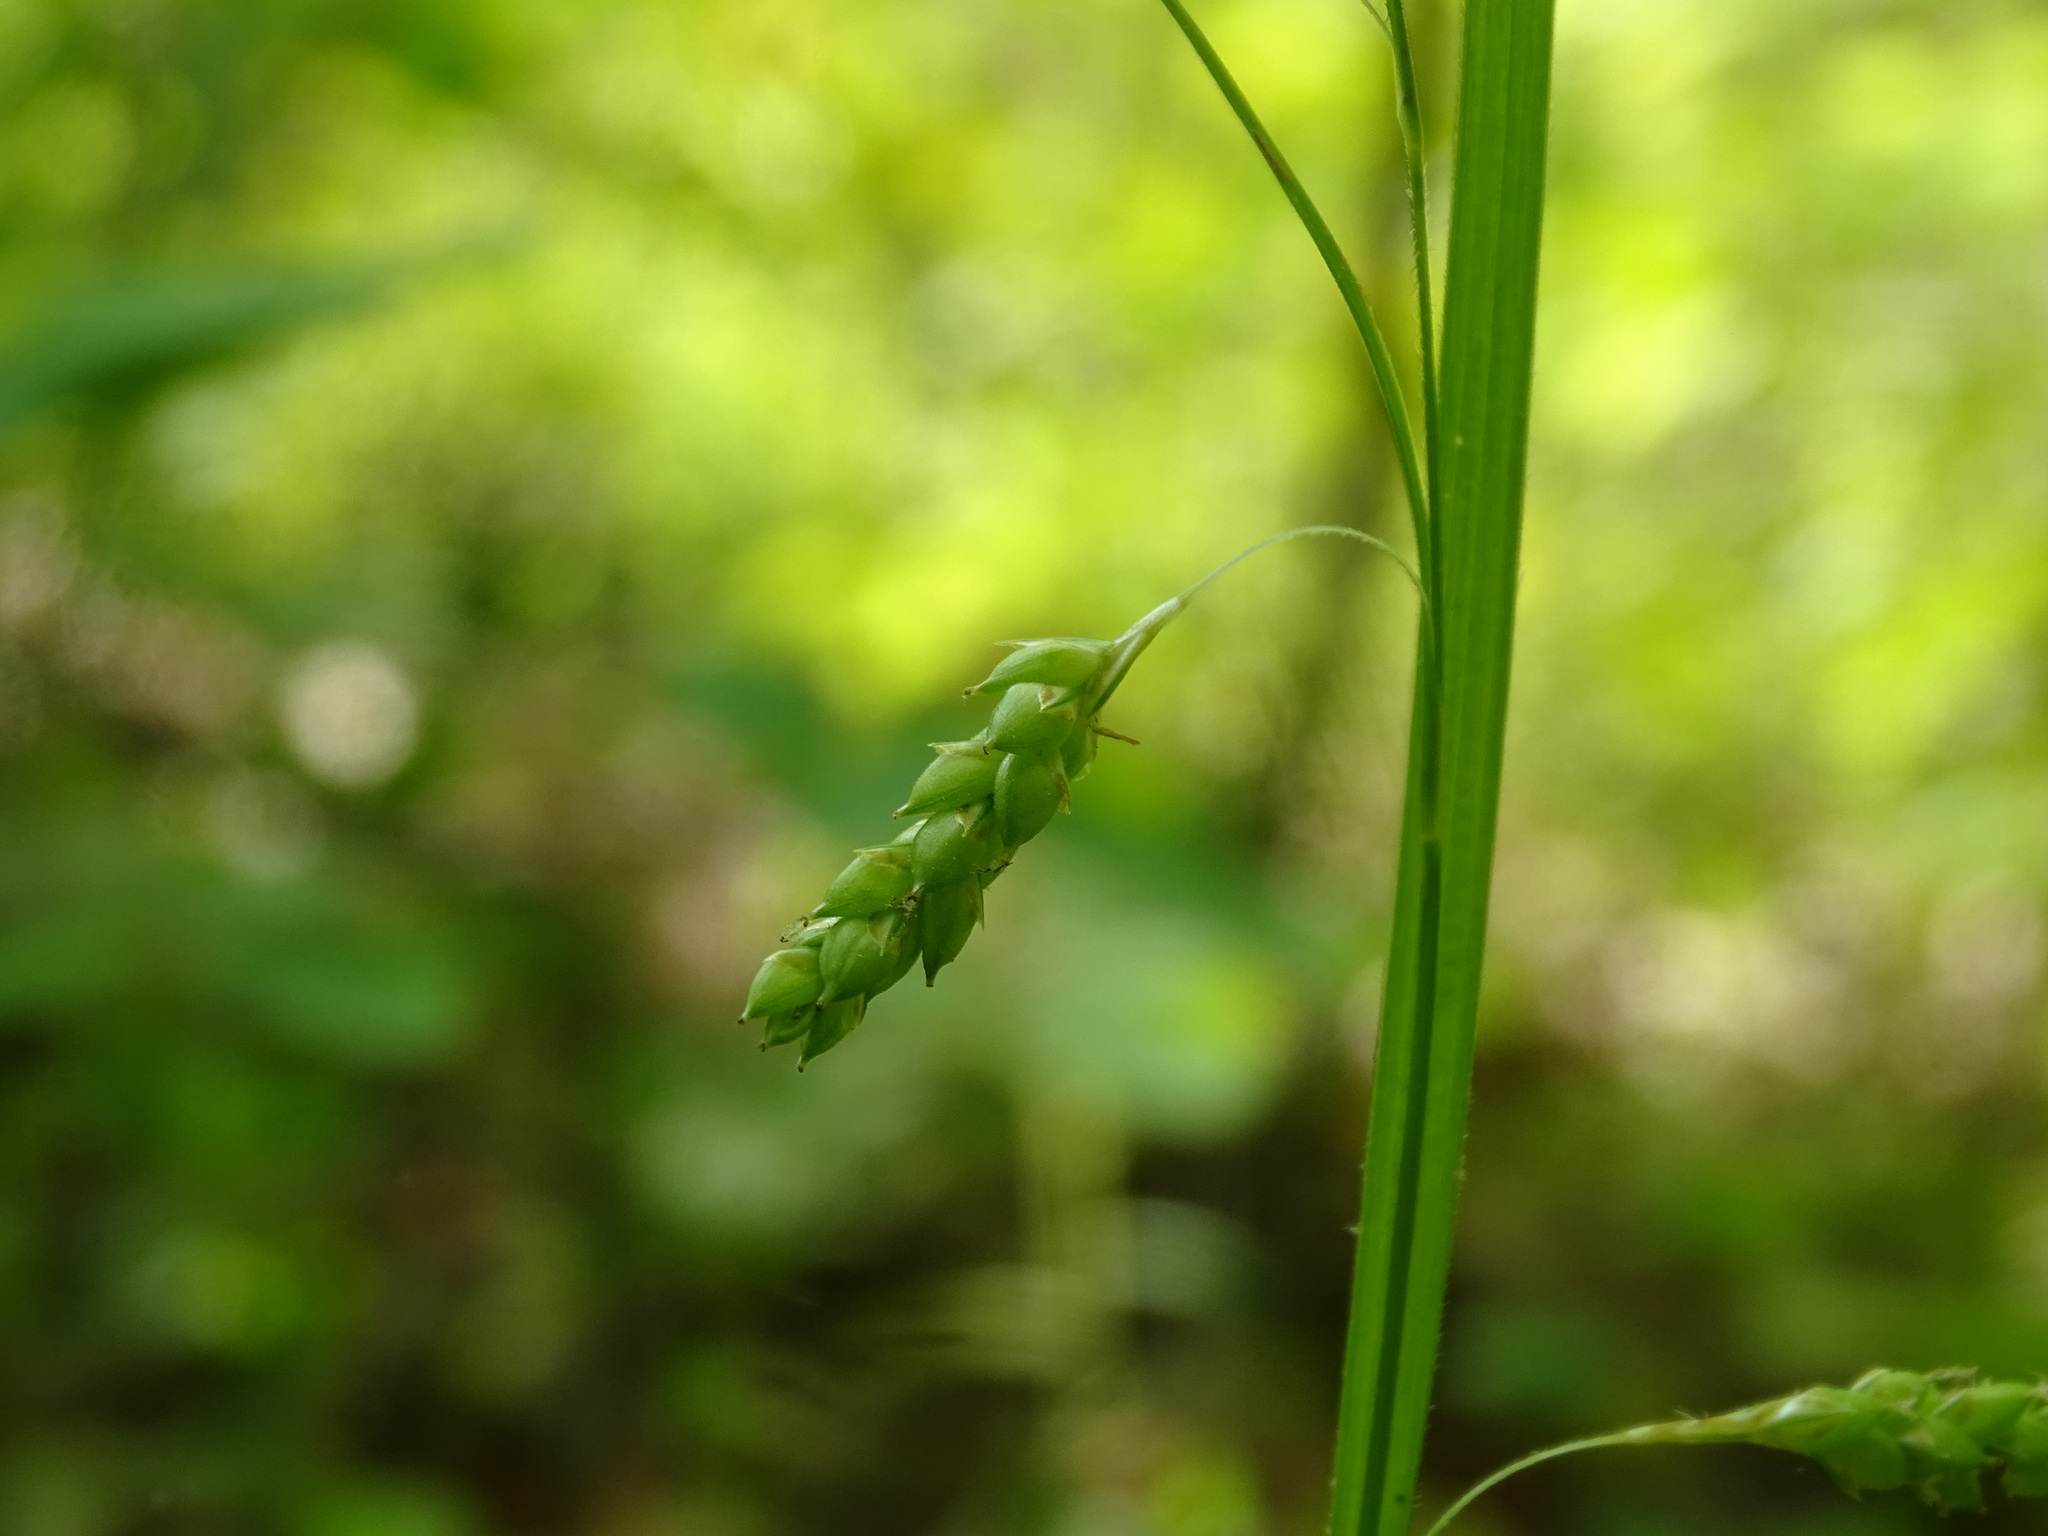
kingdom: Plantae
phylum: Tracheophyta
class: Liliopsida
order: Poales
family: Cyperaceae
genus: Carex
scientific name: Carex formosa
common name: Awnless graceful sedge
